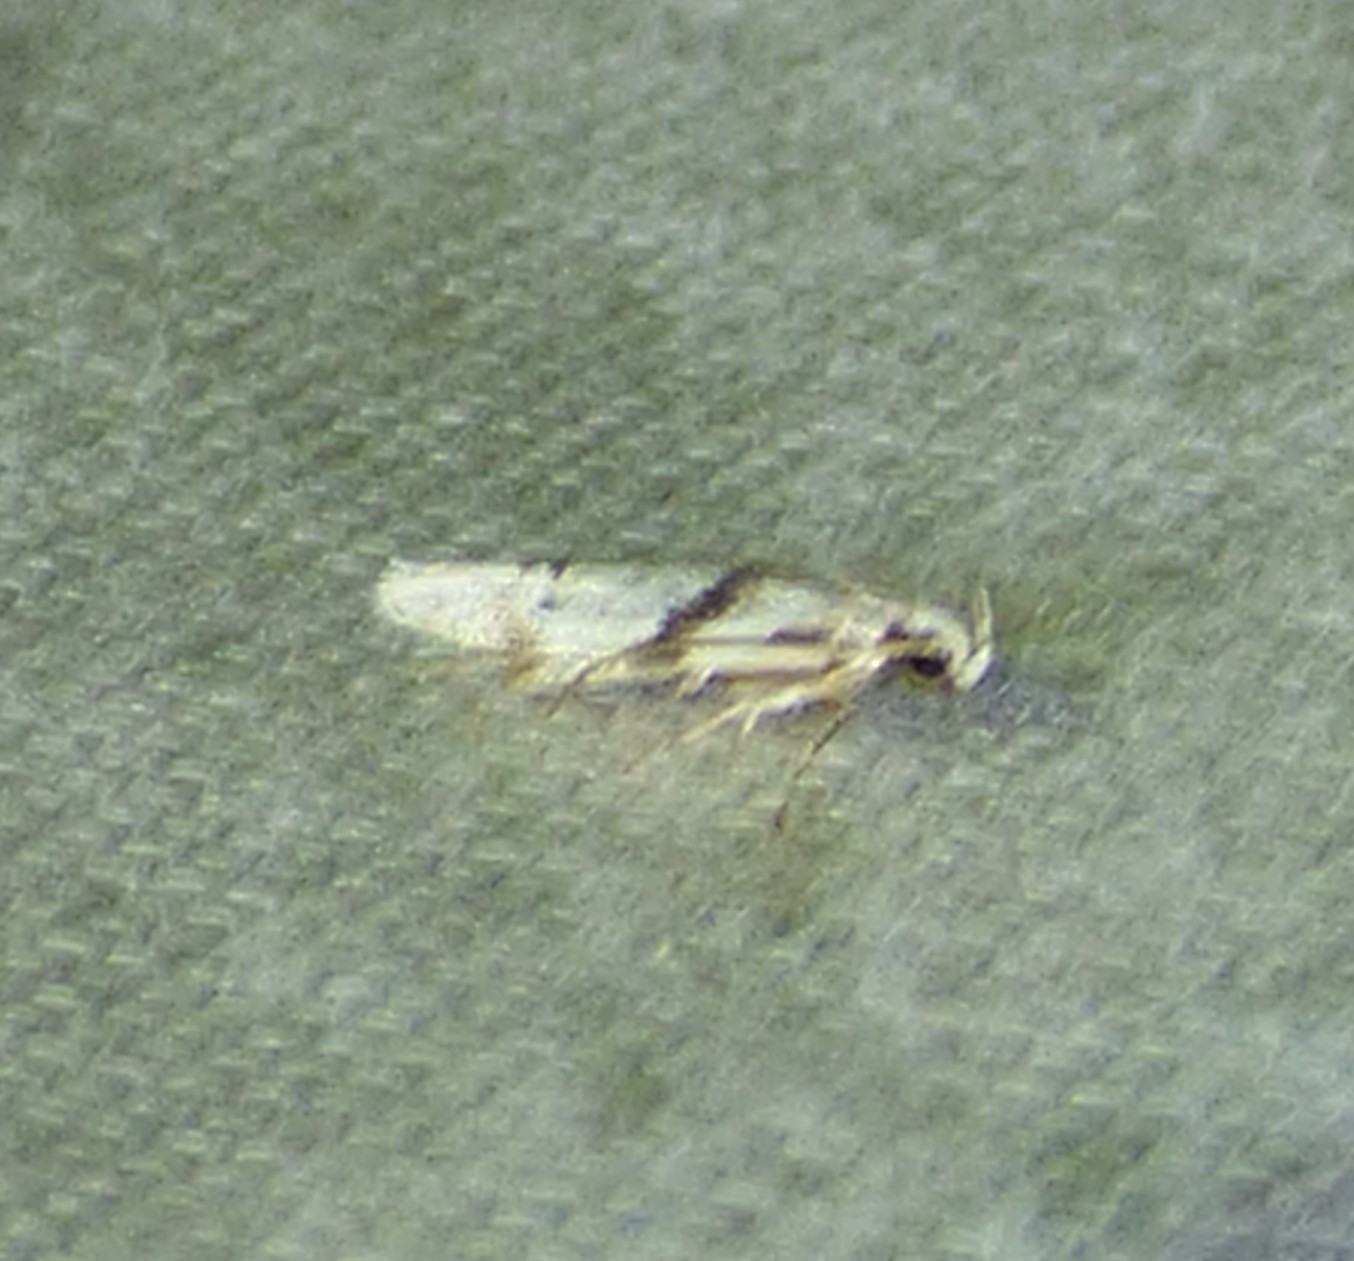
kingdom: Animalia
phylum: Arthropoda
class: Insecta
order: Lepidoptera
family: Gelechiidae
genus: Arogalea
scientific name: Arogalea cristifasciella
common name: White stripe-backed moth
